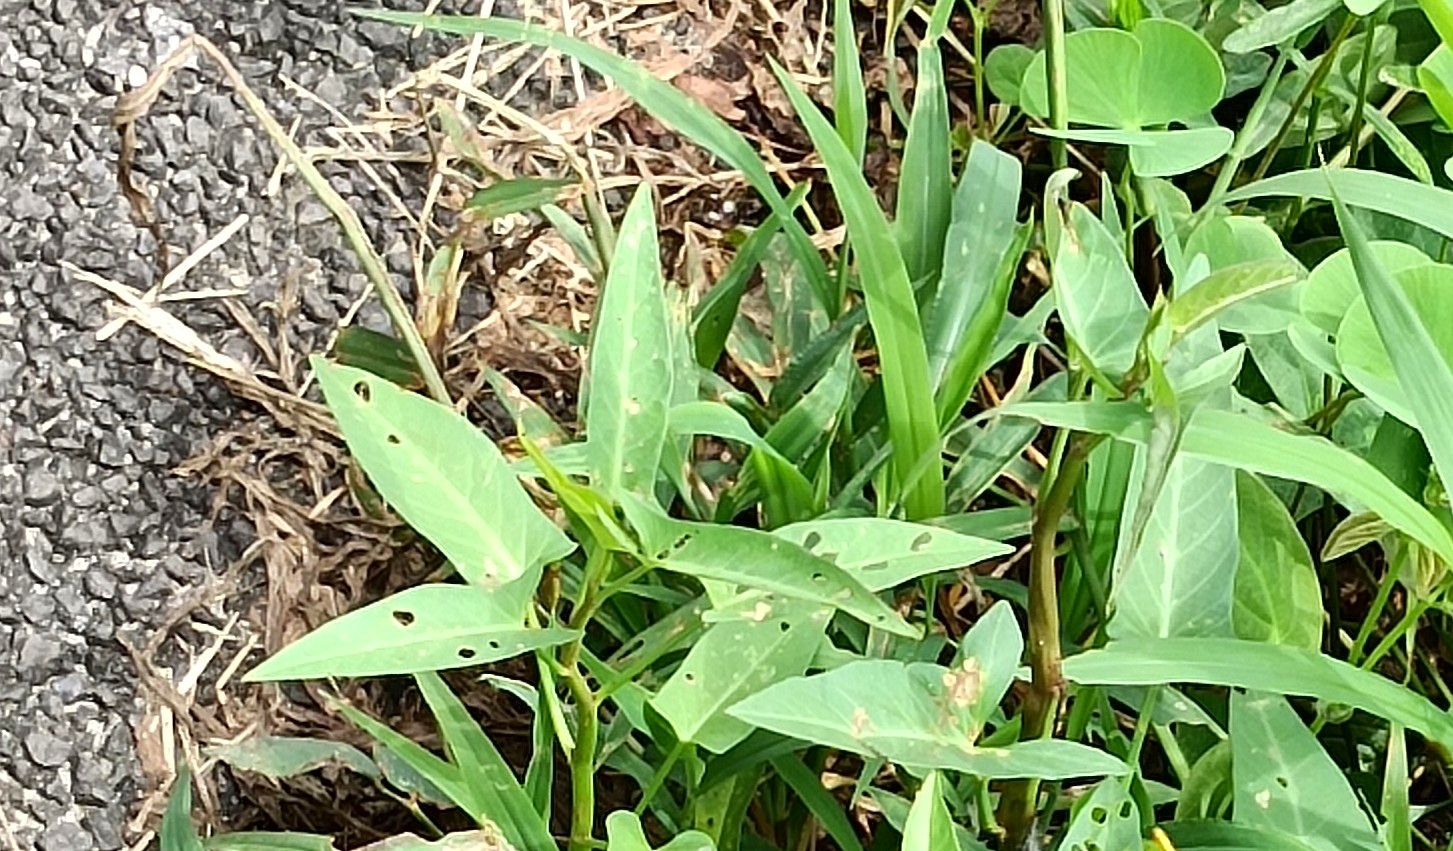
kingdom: Plantae
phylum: Tracheophyta
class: Magnoliopsida
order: Solanales
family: Convolvulaceae
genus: Ipomoea
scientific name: Ipomoea aquatica
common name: Swamp morning-glory
